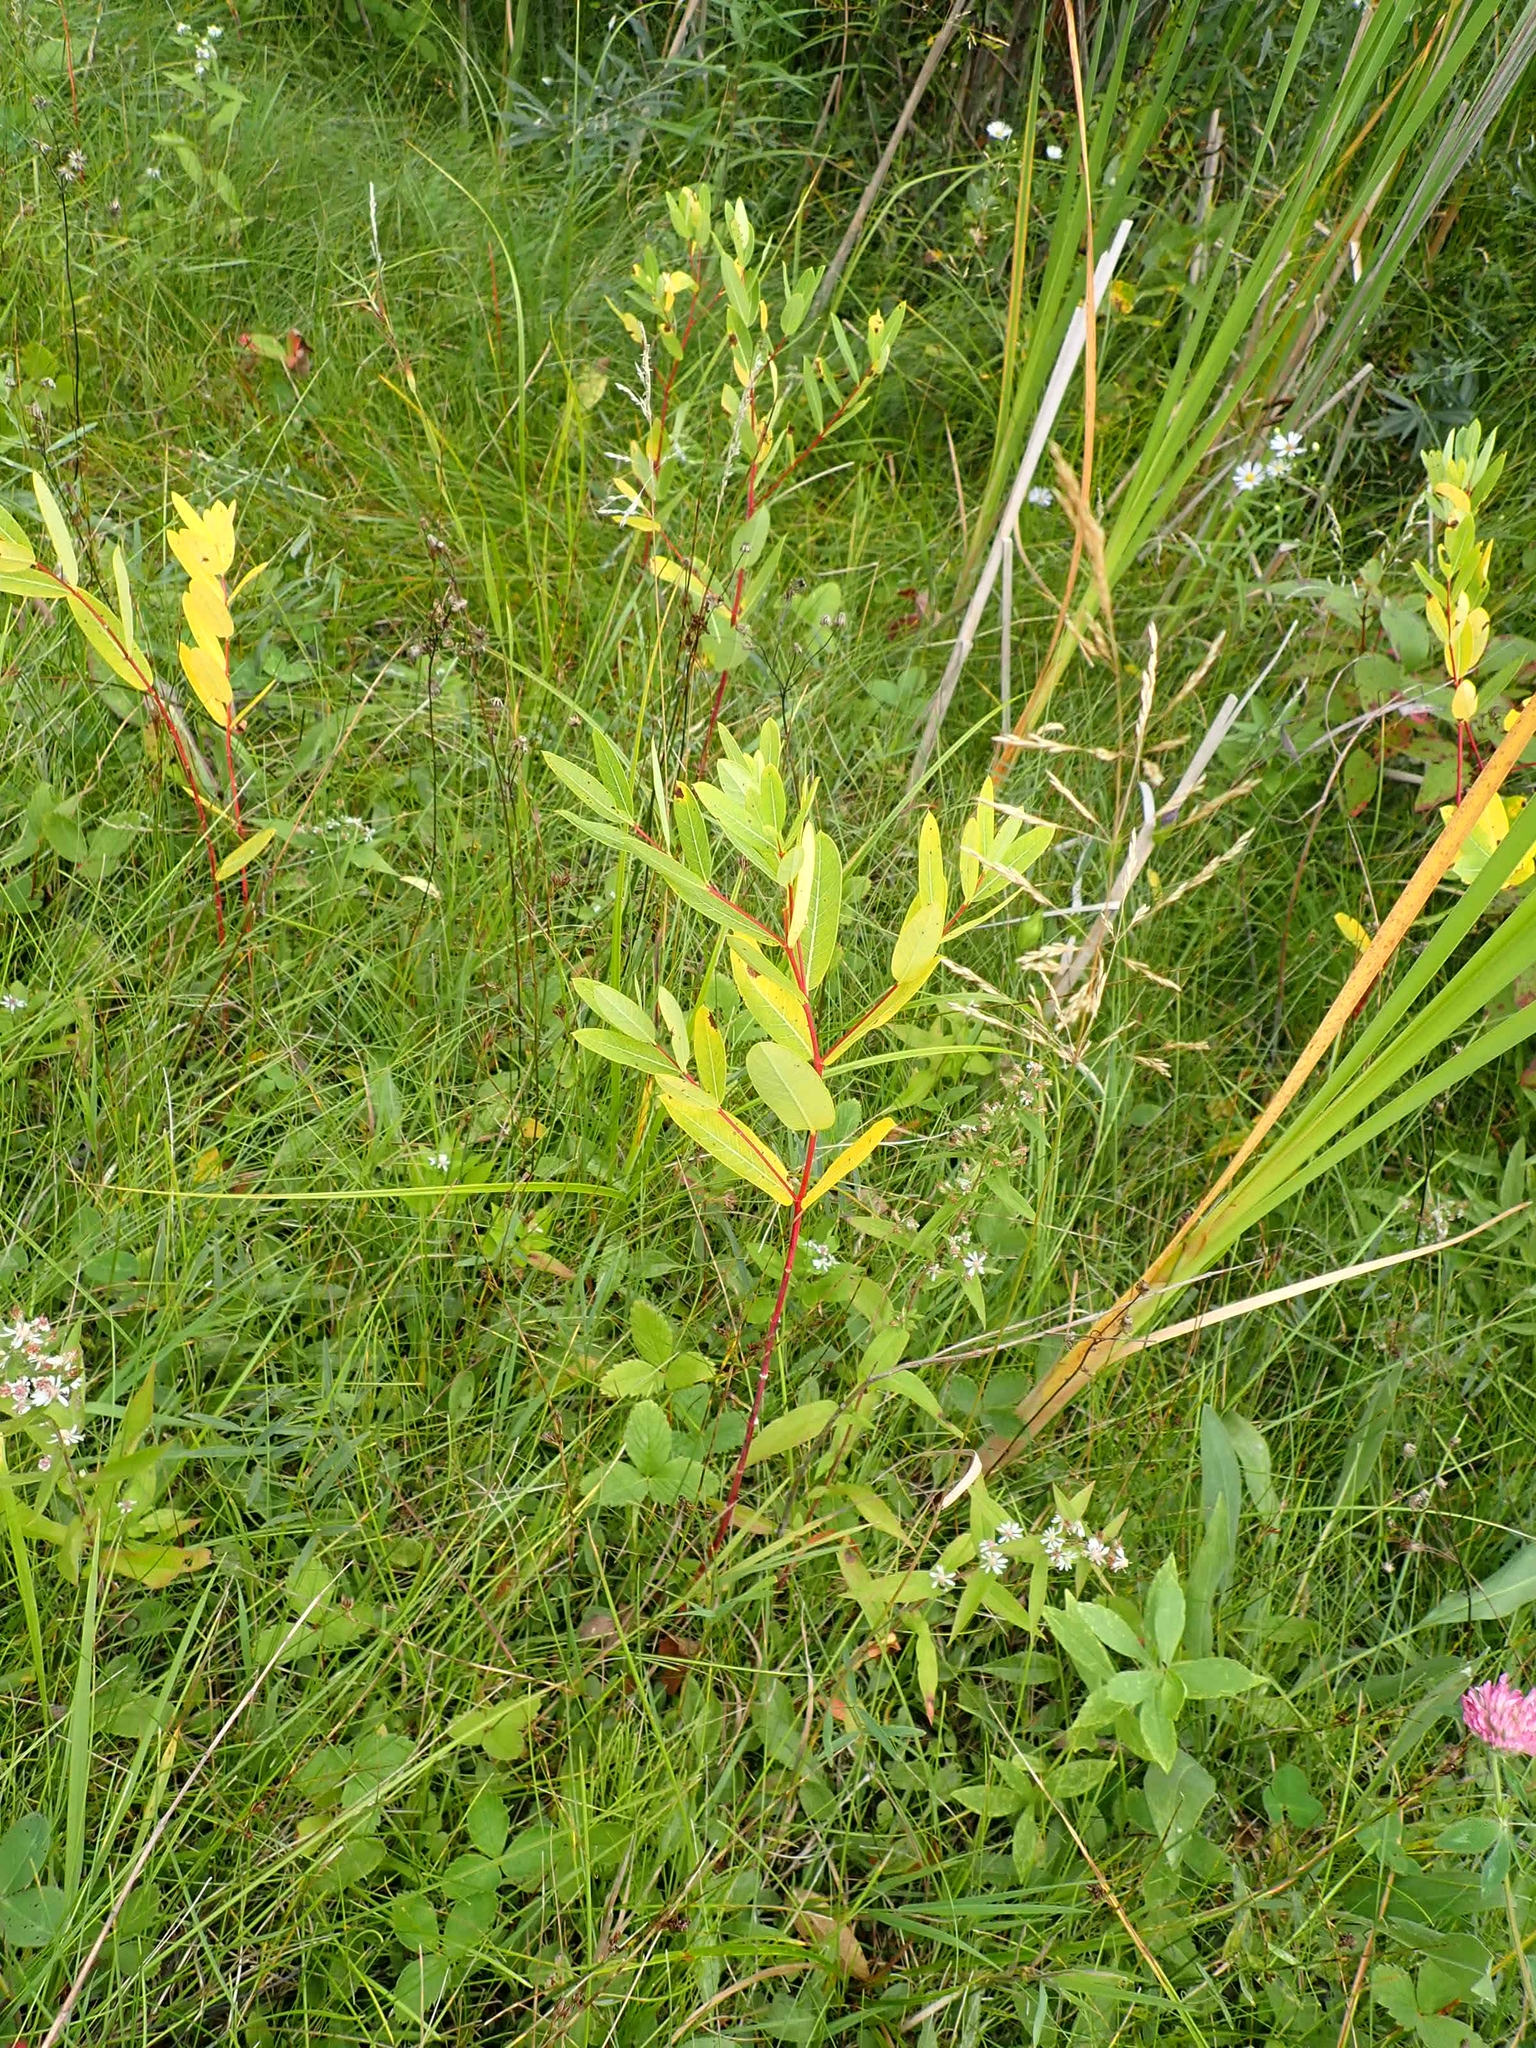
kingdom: Plantae
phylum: Tracheophyta
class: Magnoliopsida
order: Gentianales
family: Apocynaceae
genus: Apocynum
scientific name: Apocynum cannabinum
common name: Hemp dogbane
